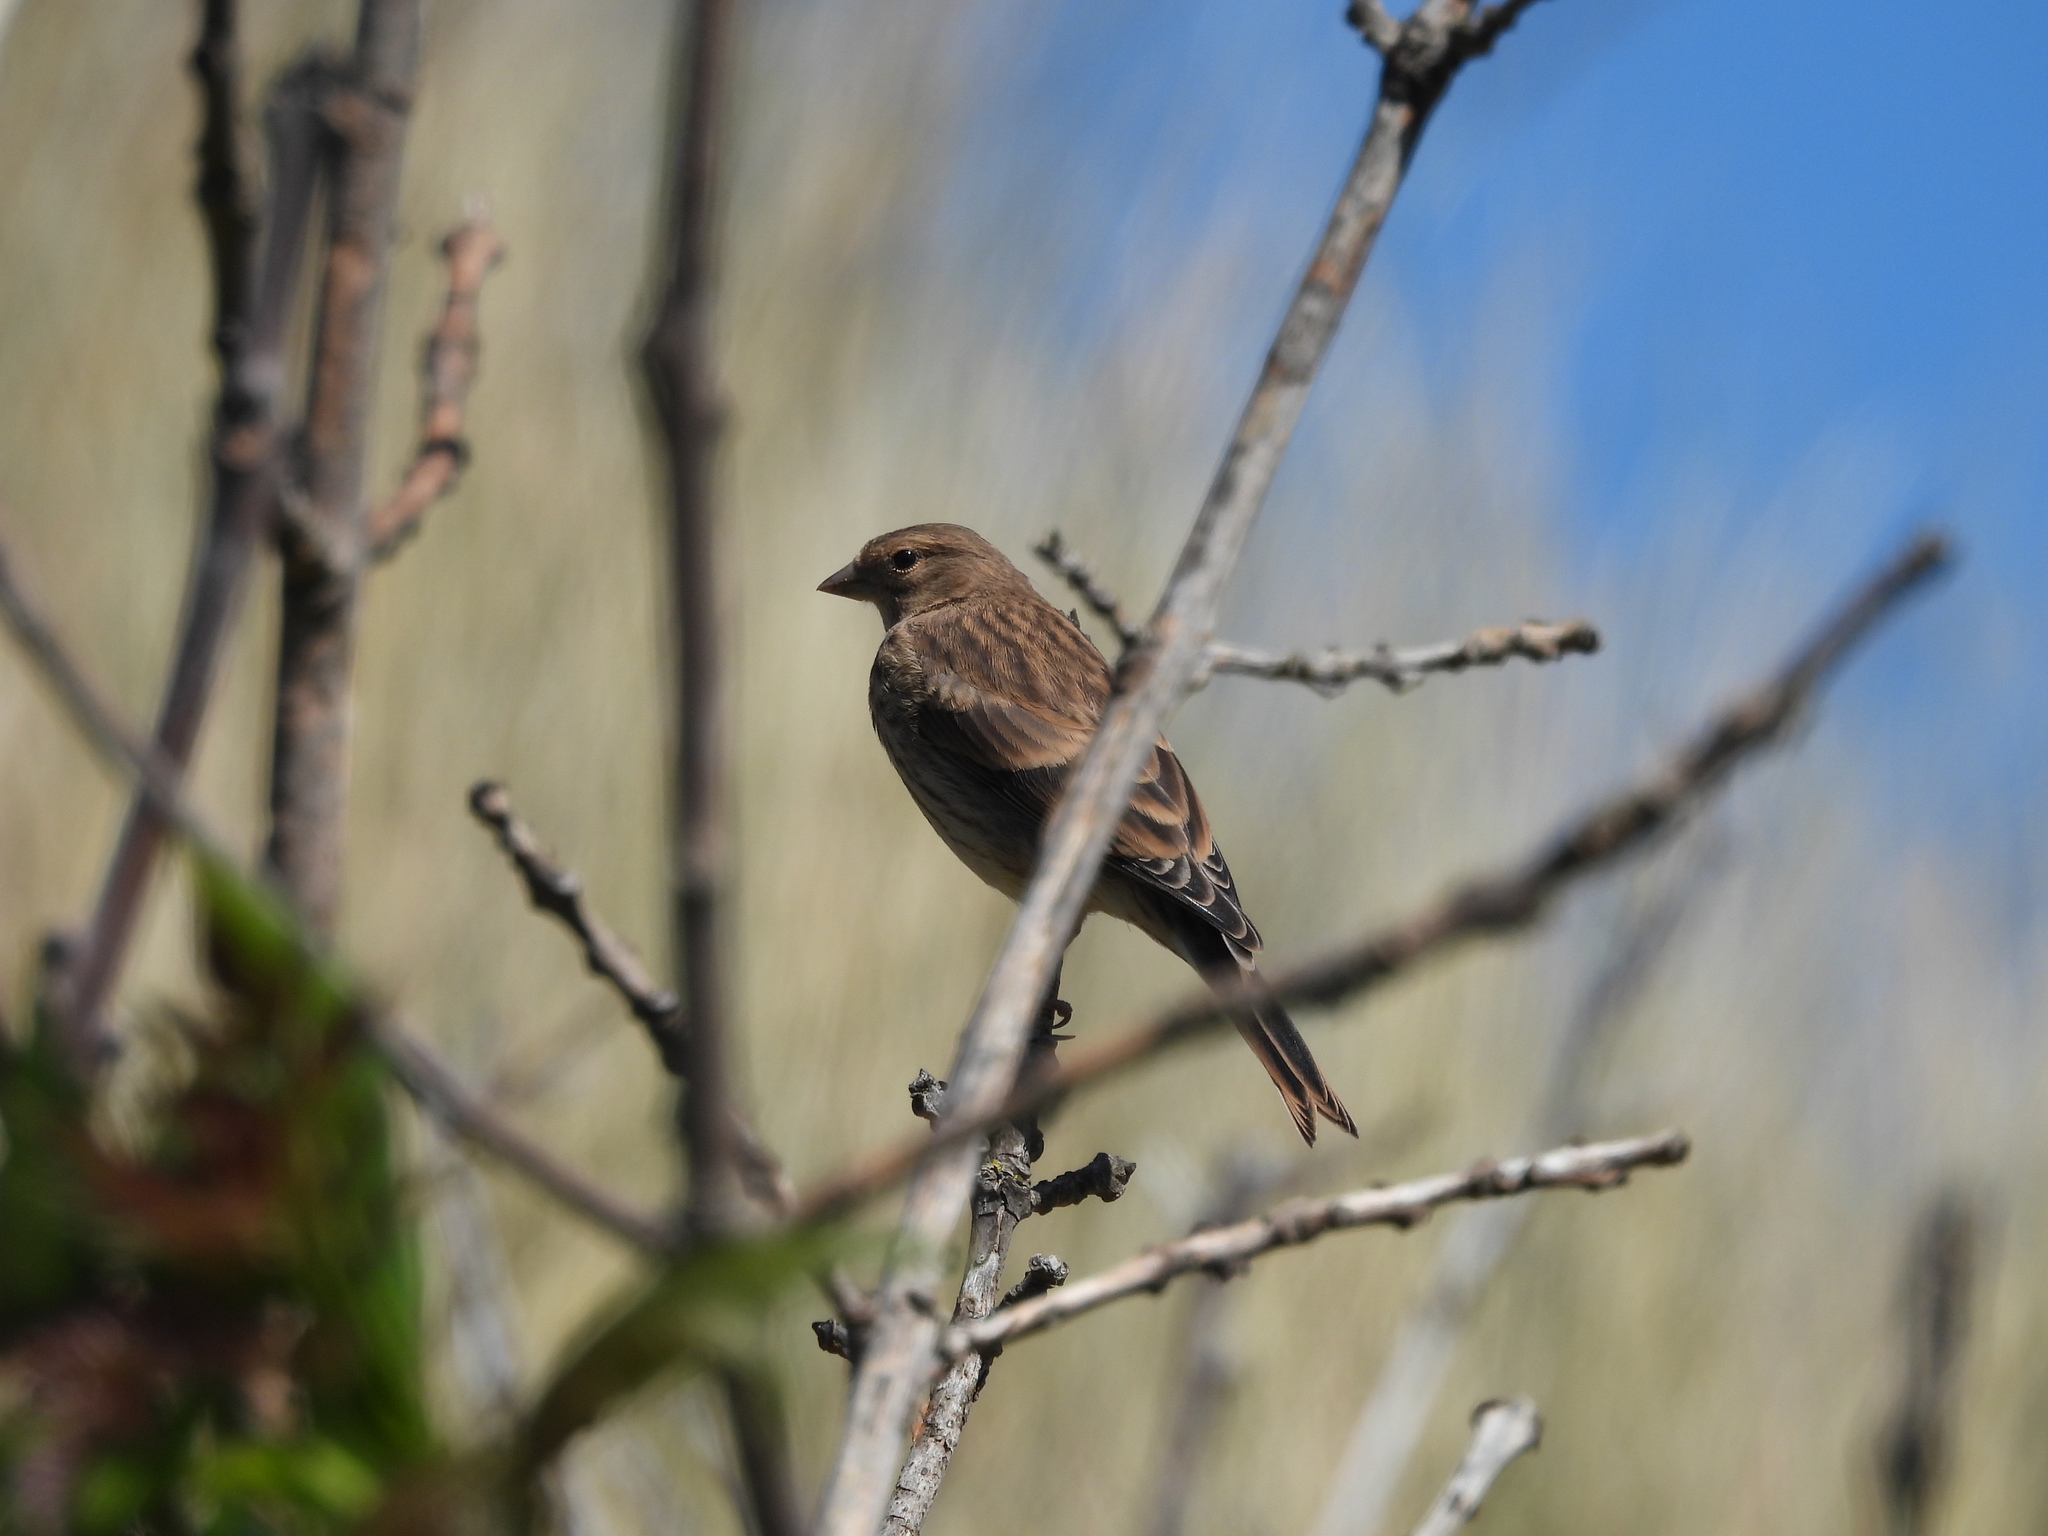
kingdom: Animalia
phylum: Chordata
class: Aves
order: Passeriformes
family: Fringillidae
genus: Linaria
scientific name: Linaria cannabina
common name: Common linnet
